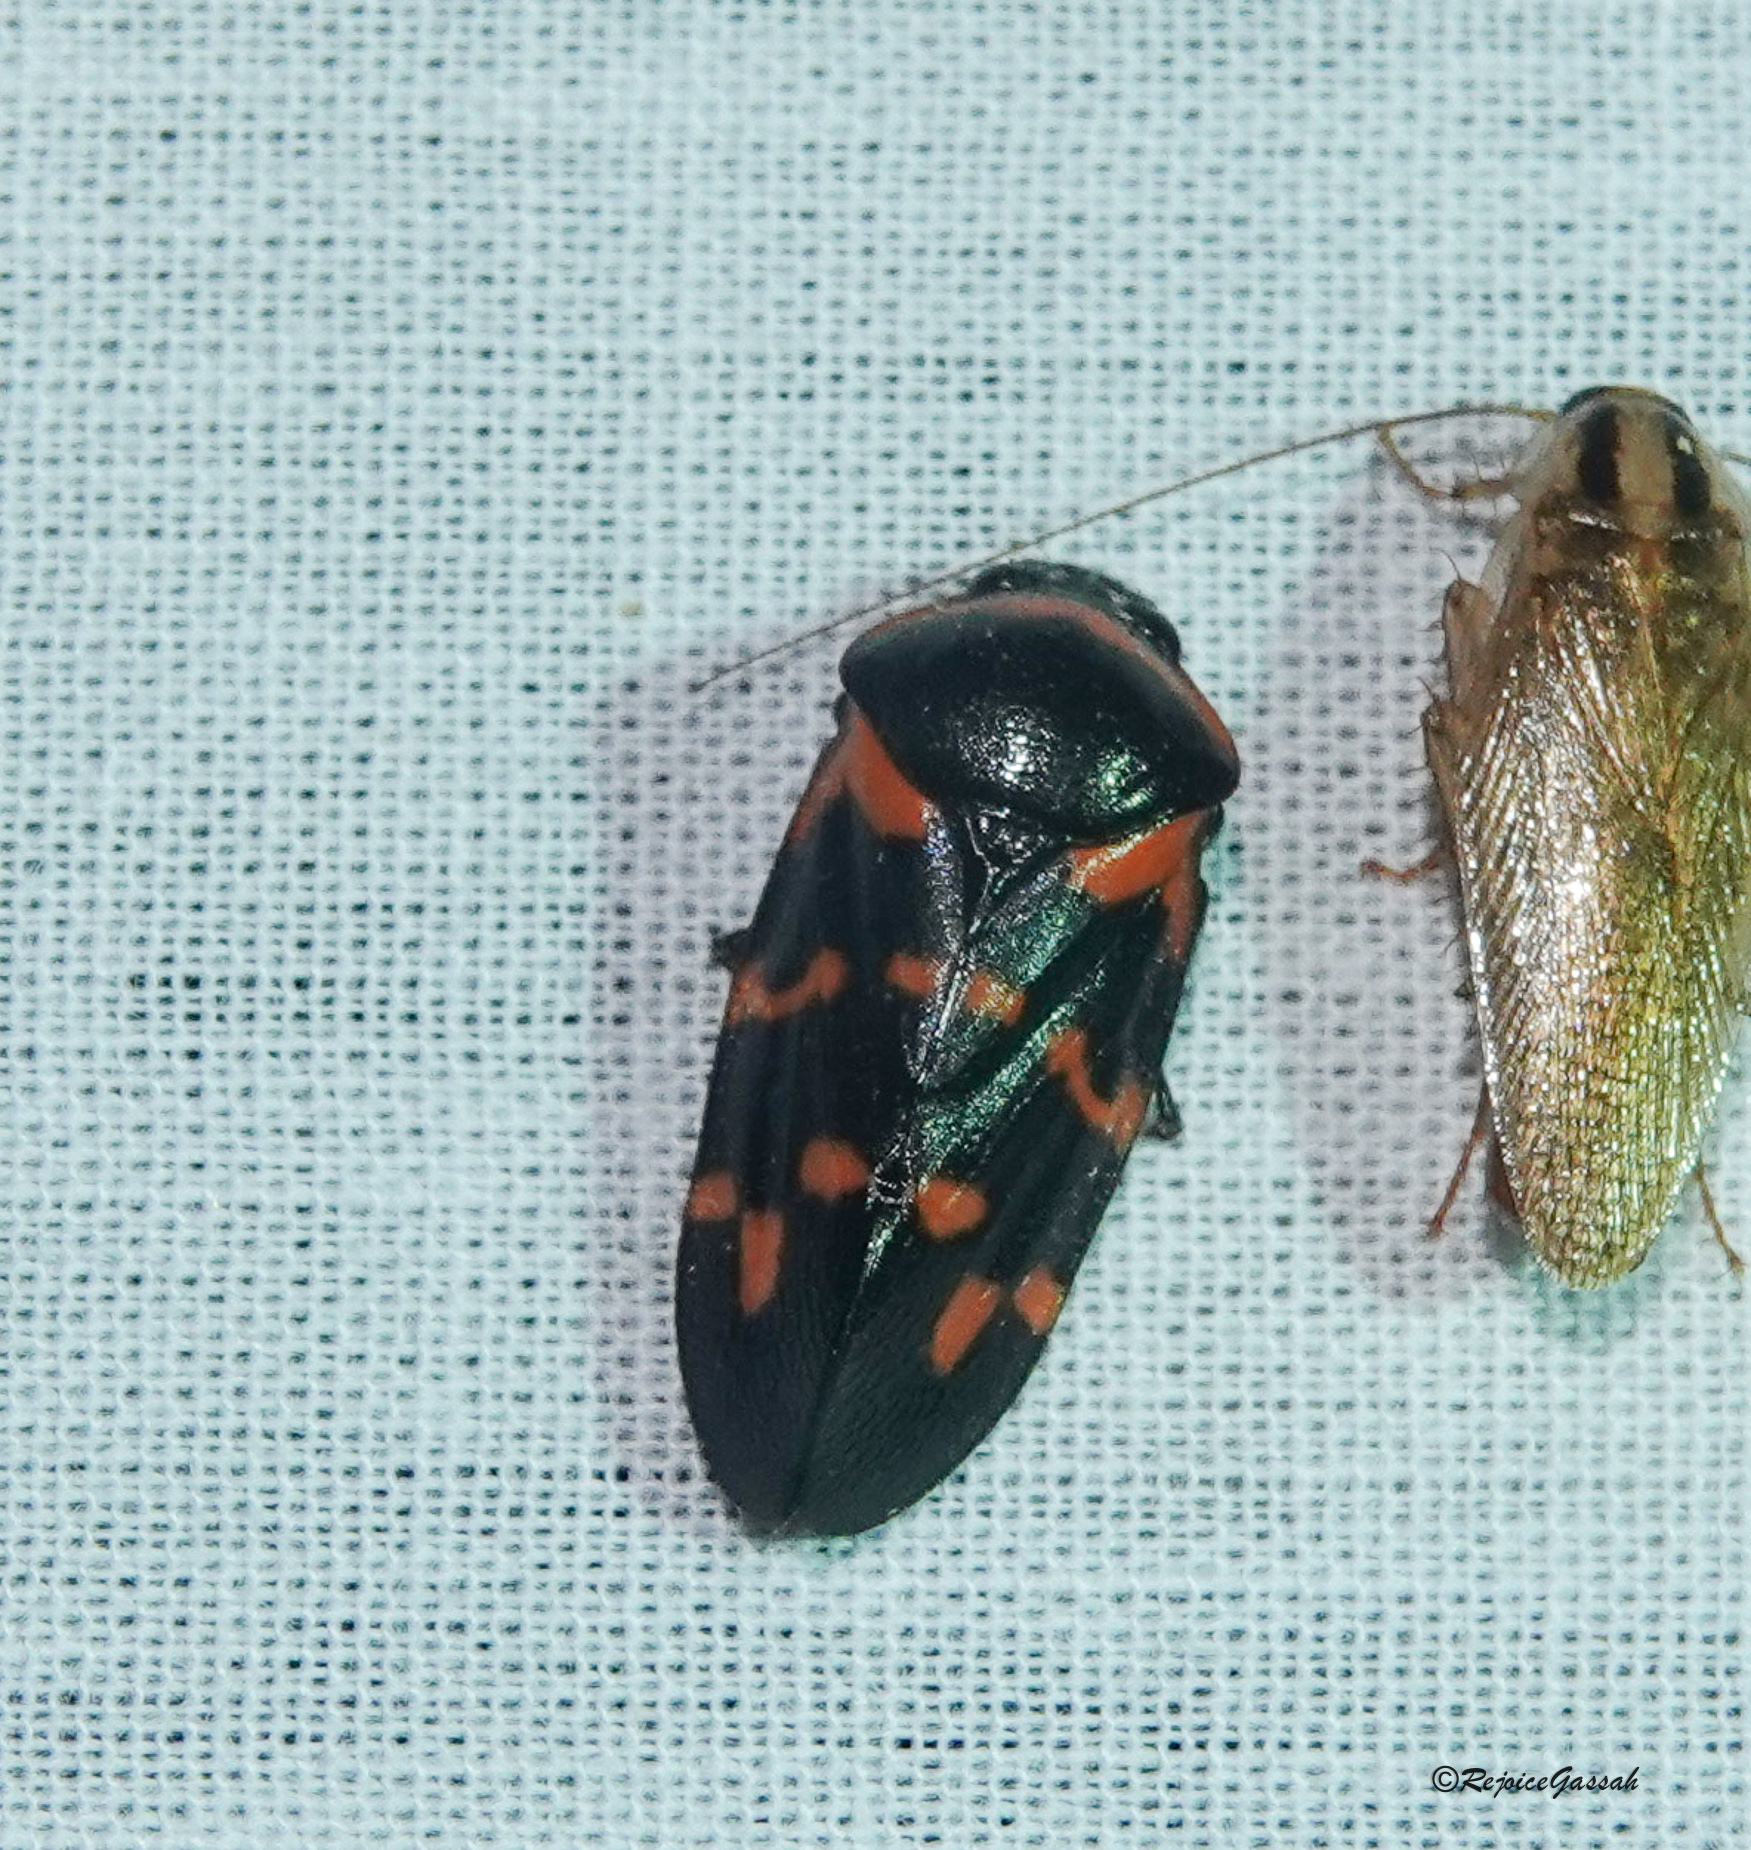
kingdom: Animalia
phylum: Arthropoda
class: Insecta
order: Hemiptera
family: Cercopidae
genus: Cosmoscarta
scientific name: Cosmoscarta dimidiata
